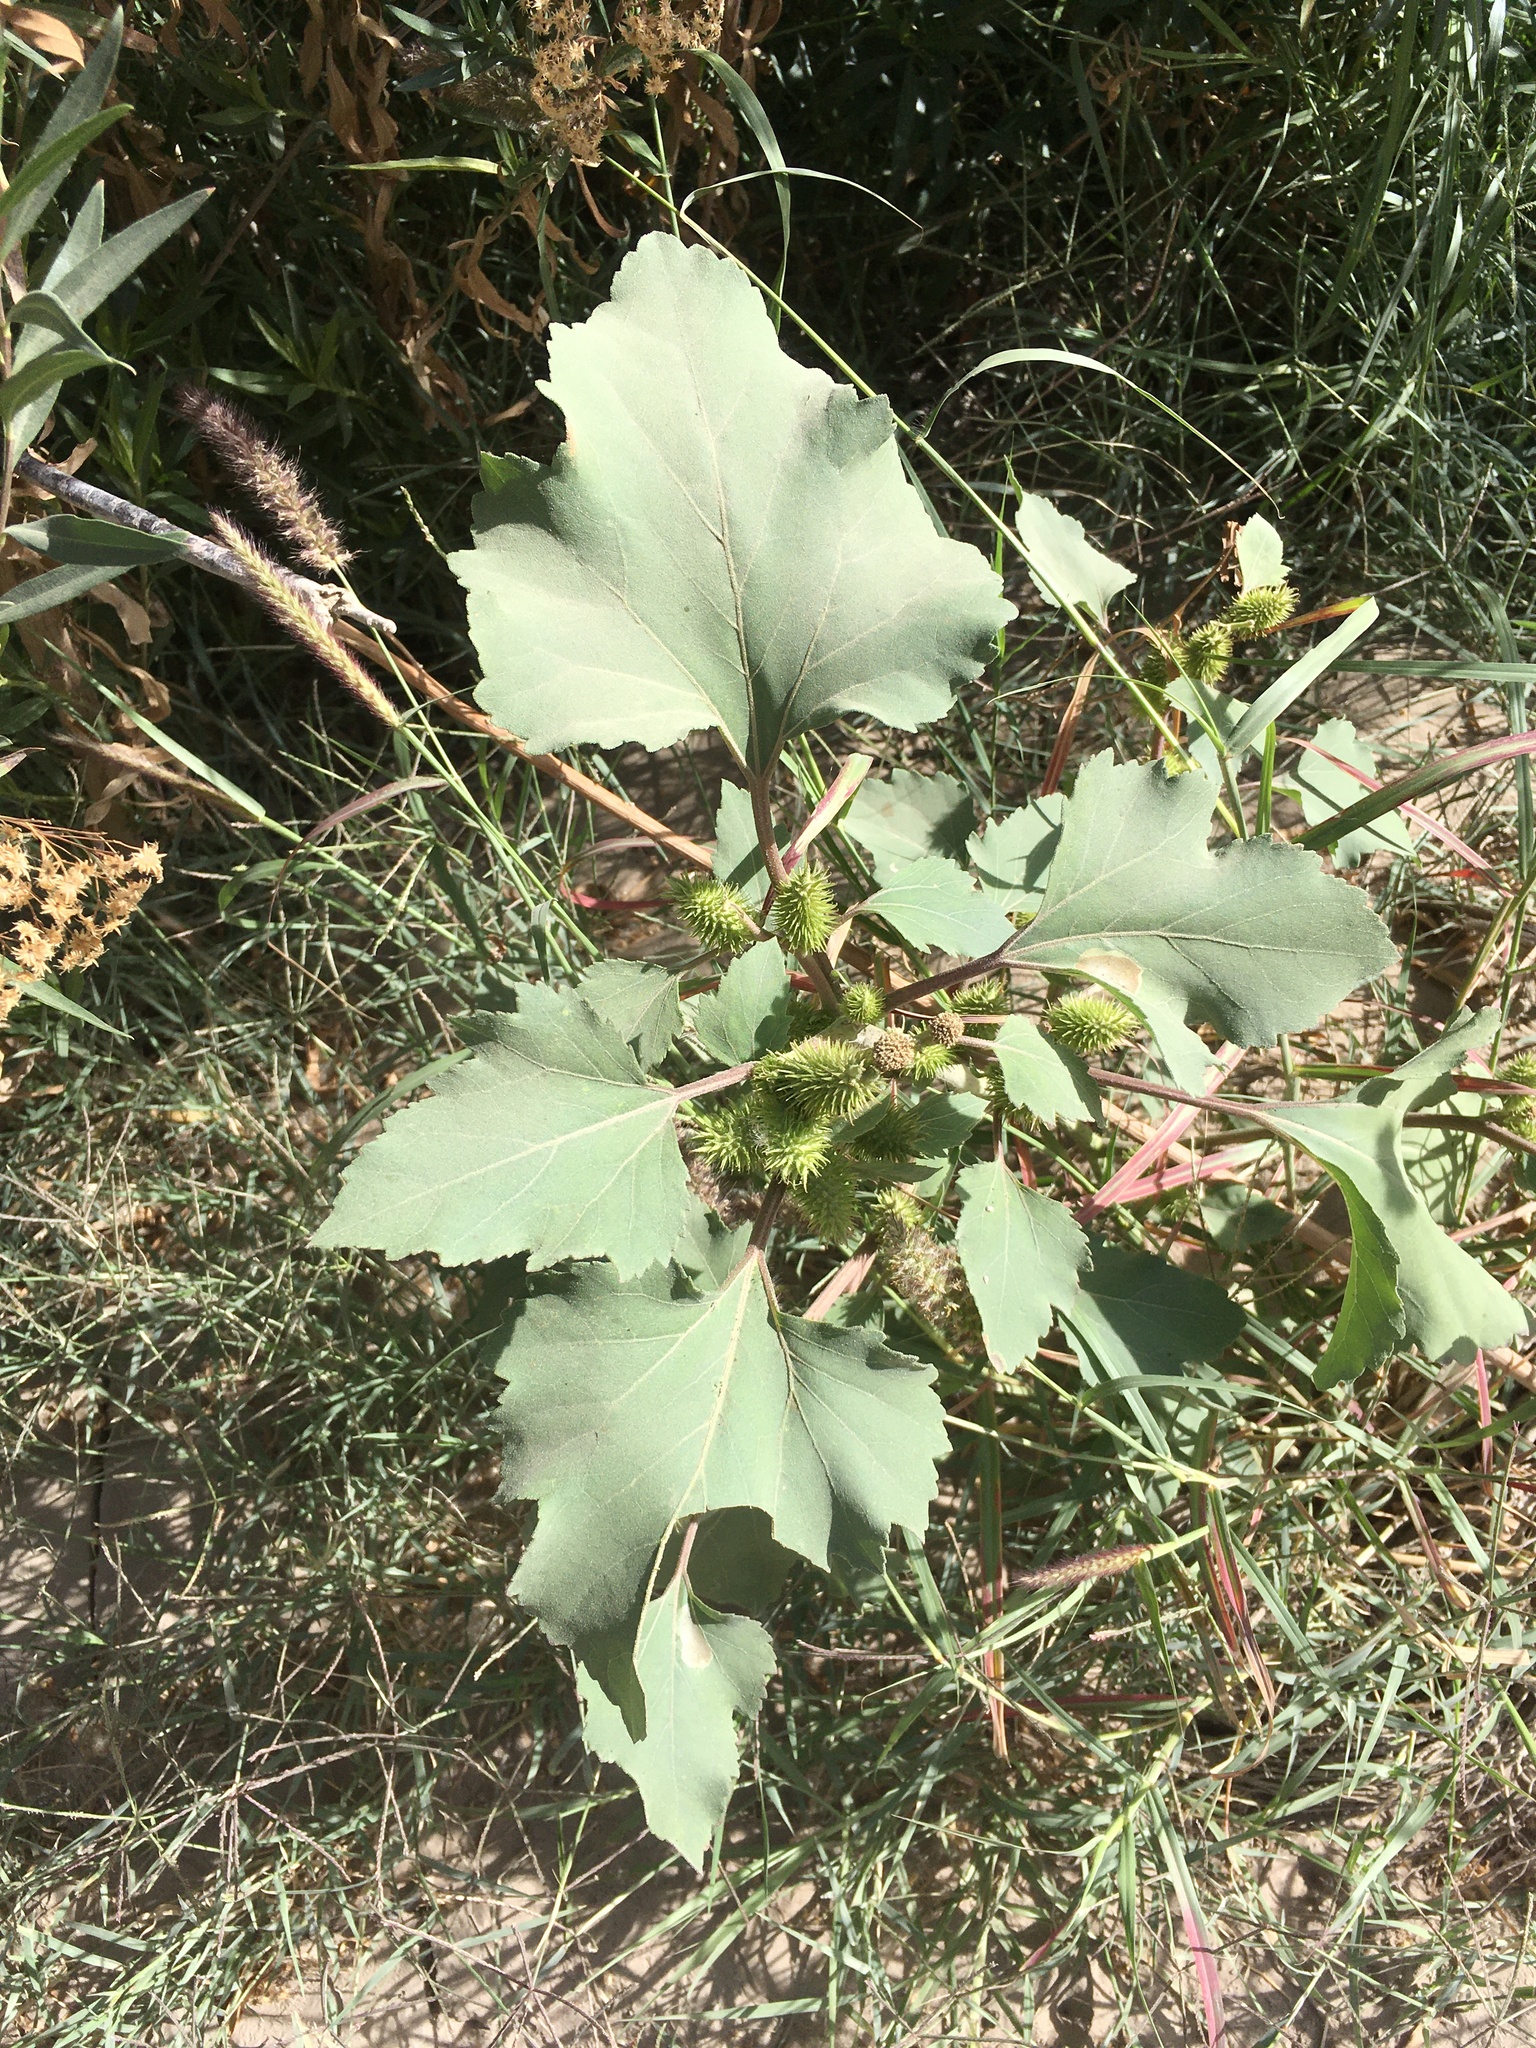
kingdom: Plantae
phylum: Tracheophyta
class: Magnoliopsida
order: Asterales
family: Asteraceae
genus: Xanthium
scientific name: Xanthium strumarium
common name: Rough cocklebur
